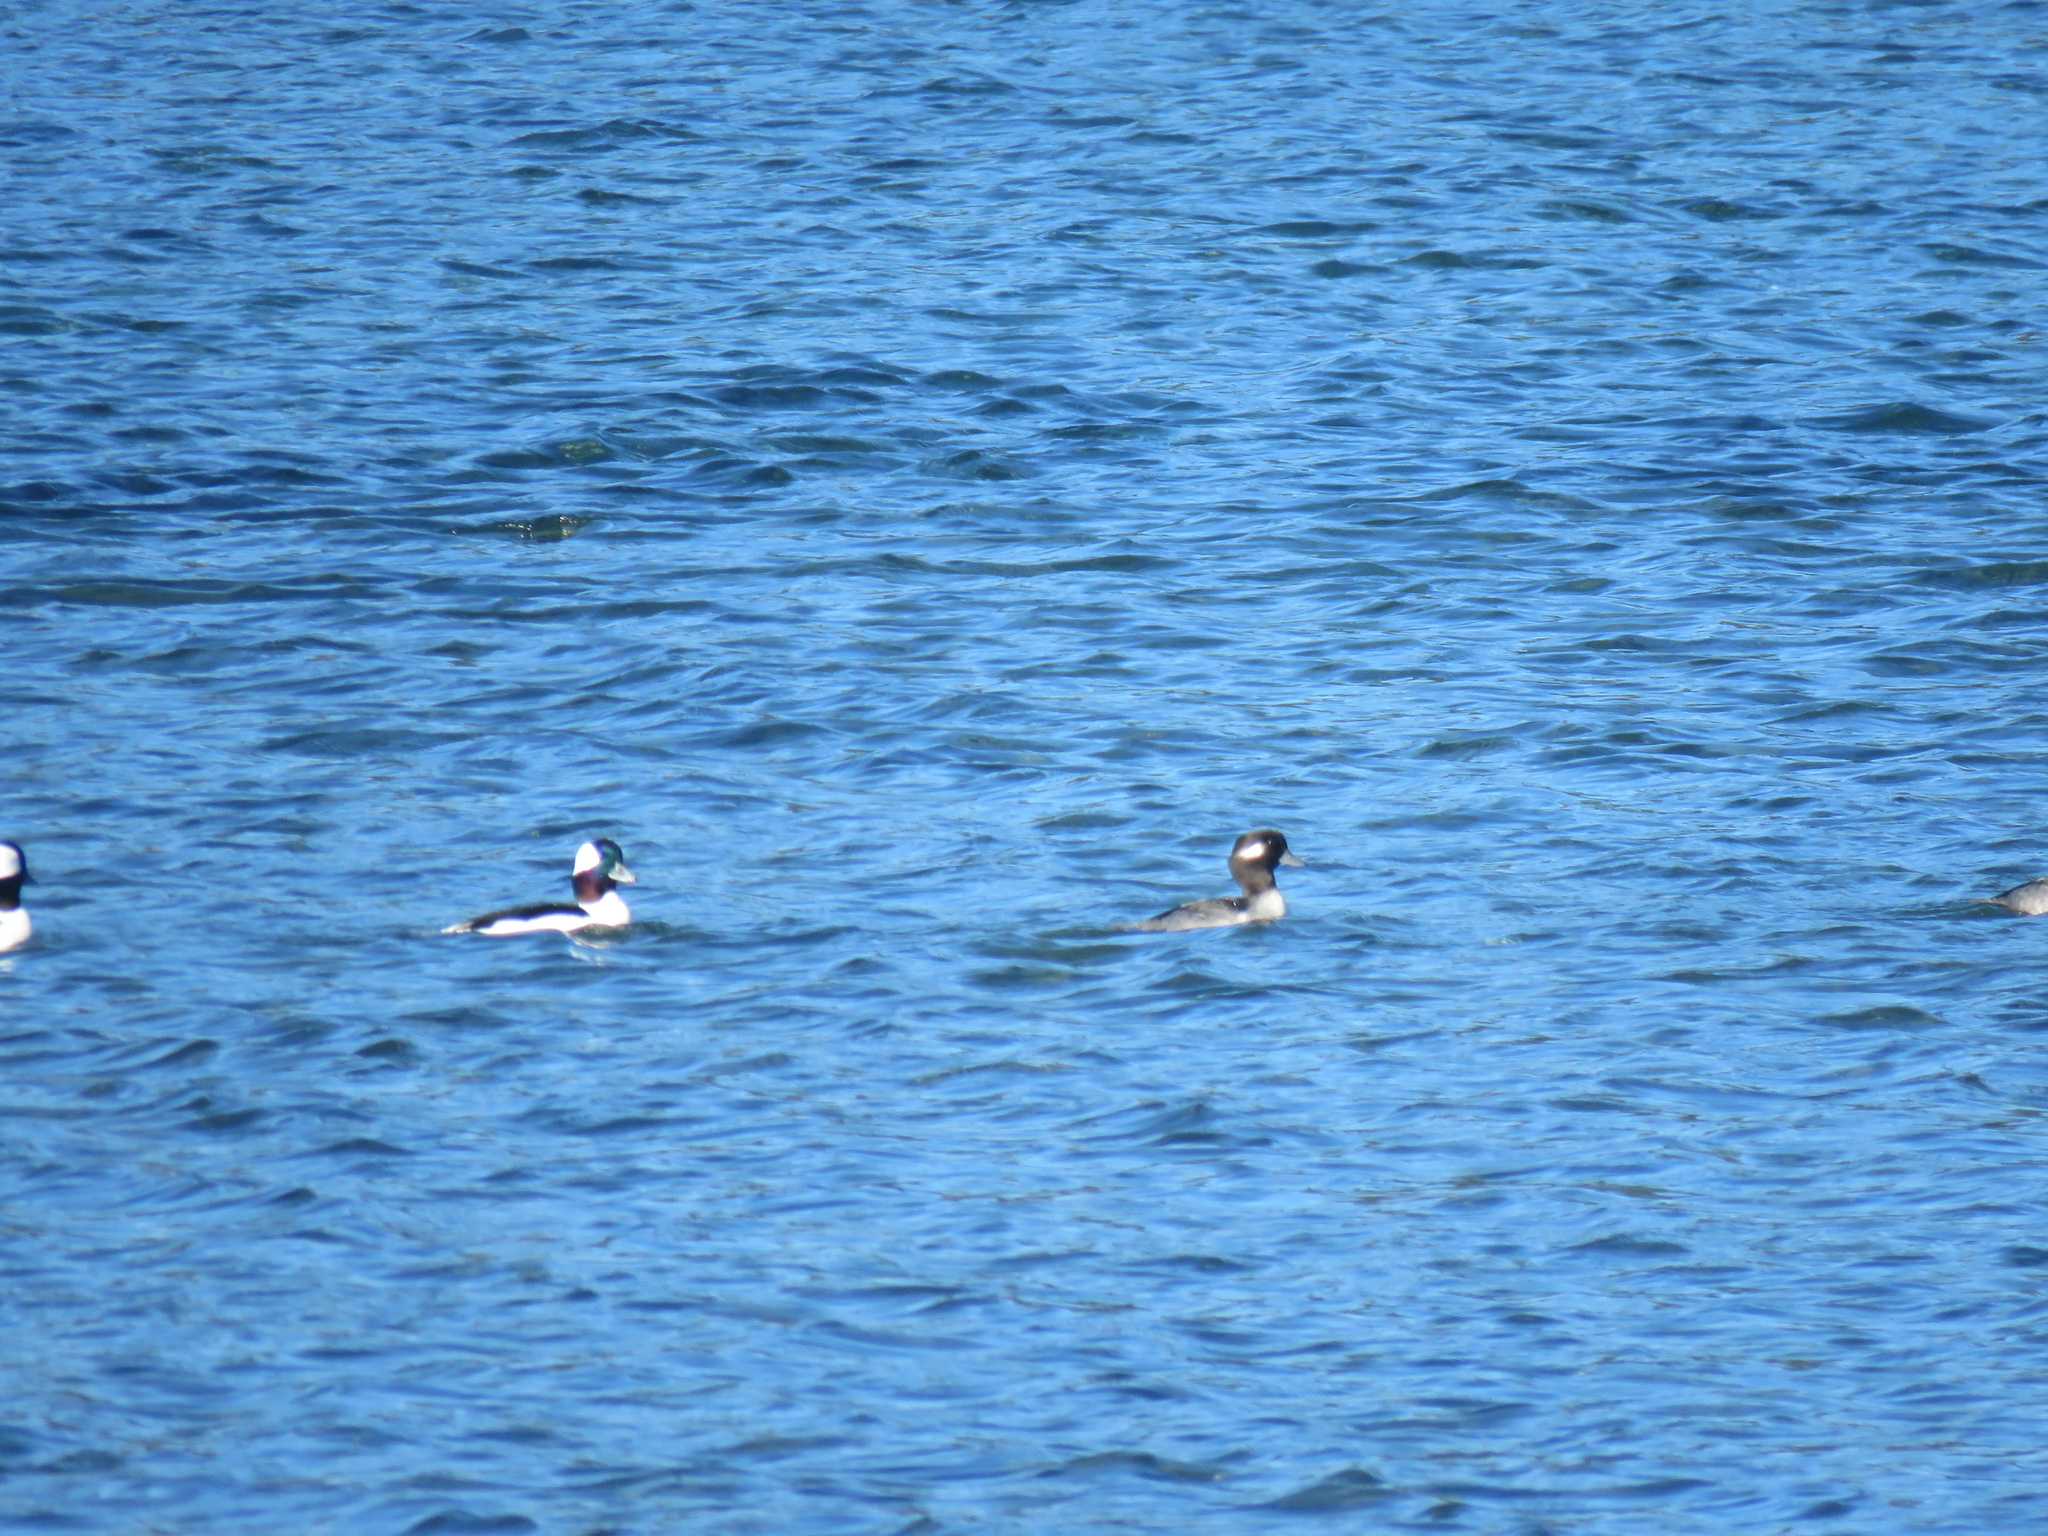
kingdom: Animalia
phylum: Chordata
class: Aves
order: Anseriformes
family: Anatidae
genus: Bucephala
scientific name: Bucephala albeola
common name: Bufflehead
